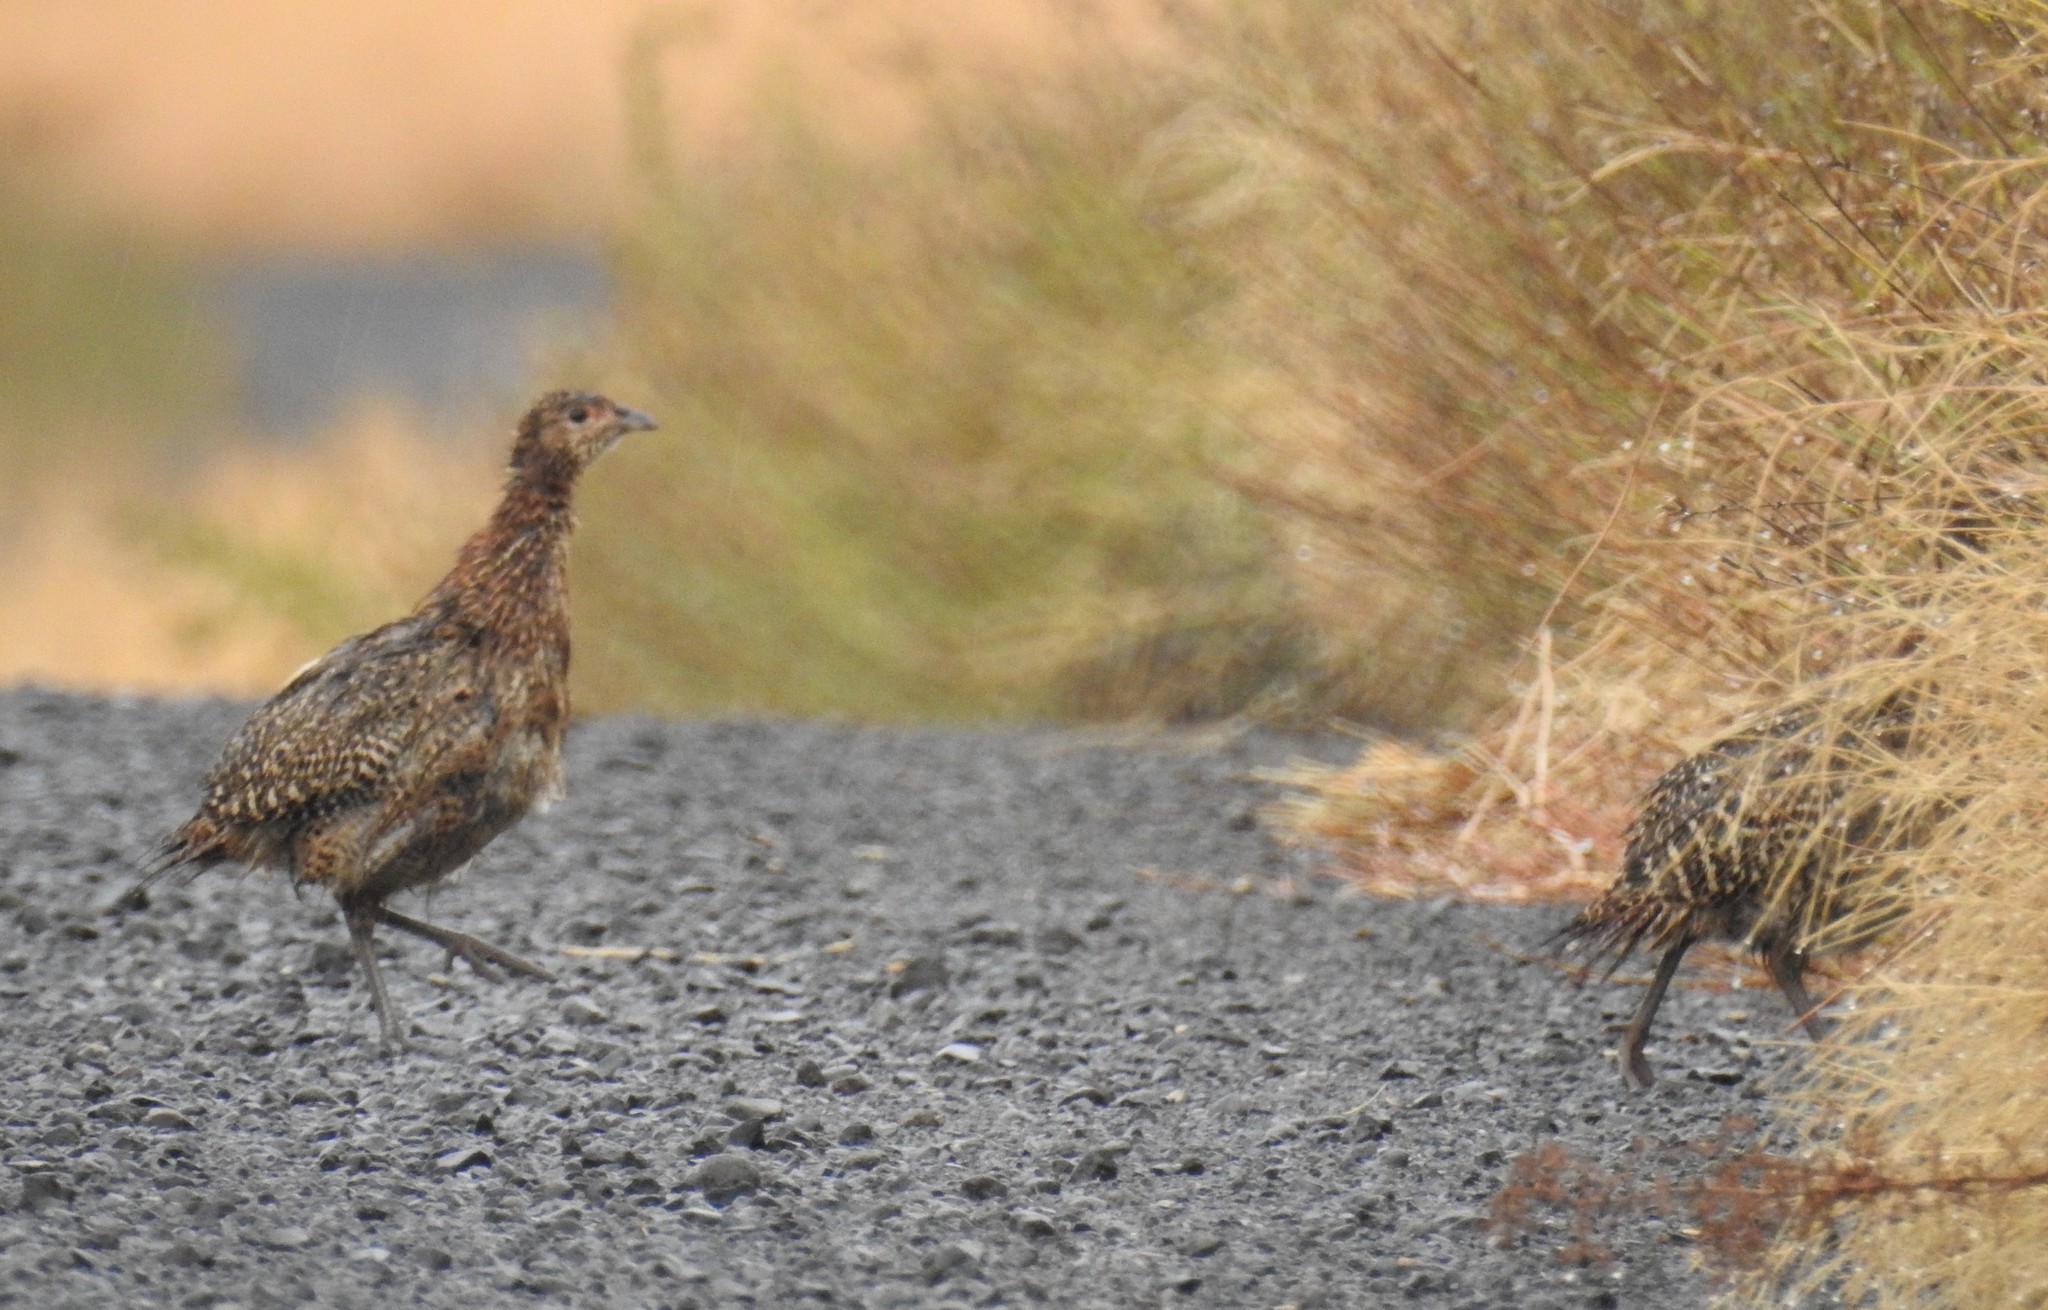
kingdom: Animalia
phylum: Chordata
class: Aves
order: Galliformes
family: Phasianidae
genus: Phasianus
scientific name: Phasianus colchicus
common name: Common pheasant
